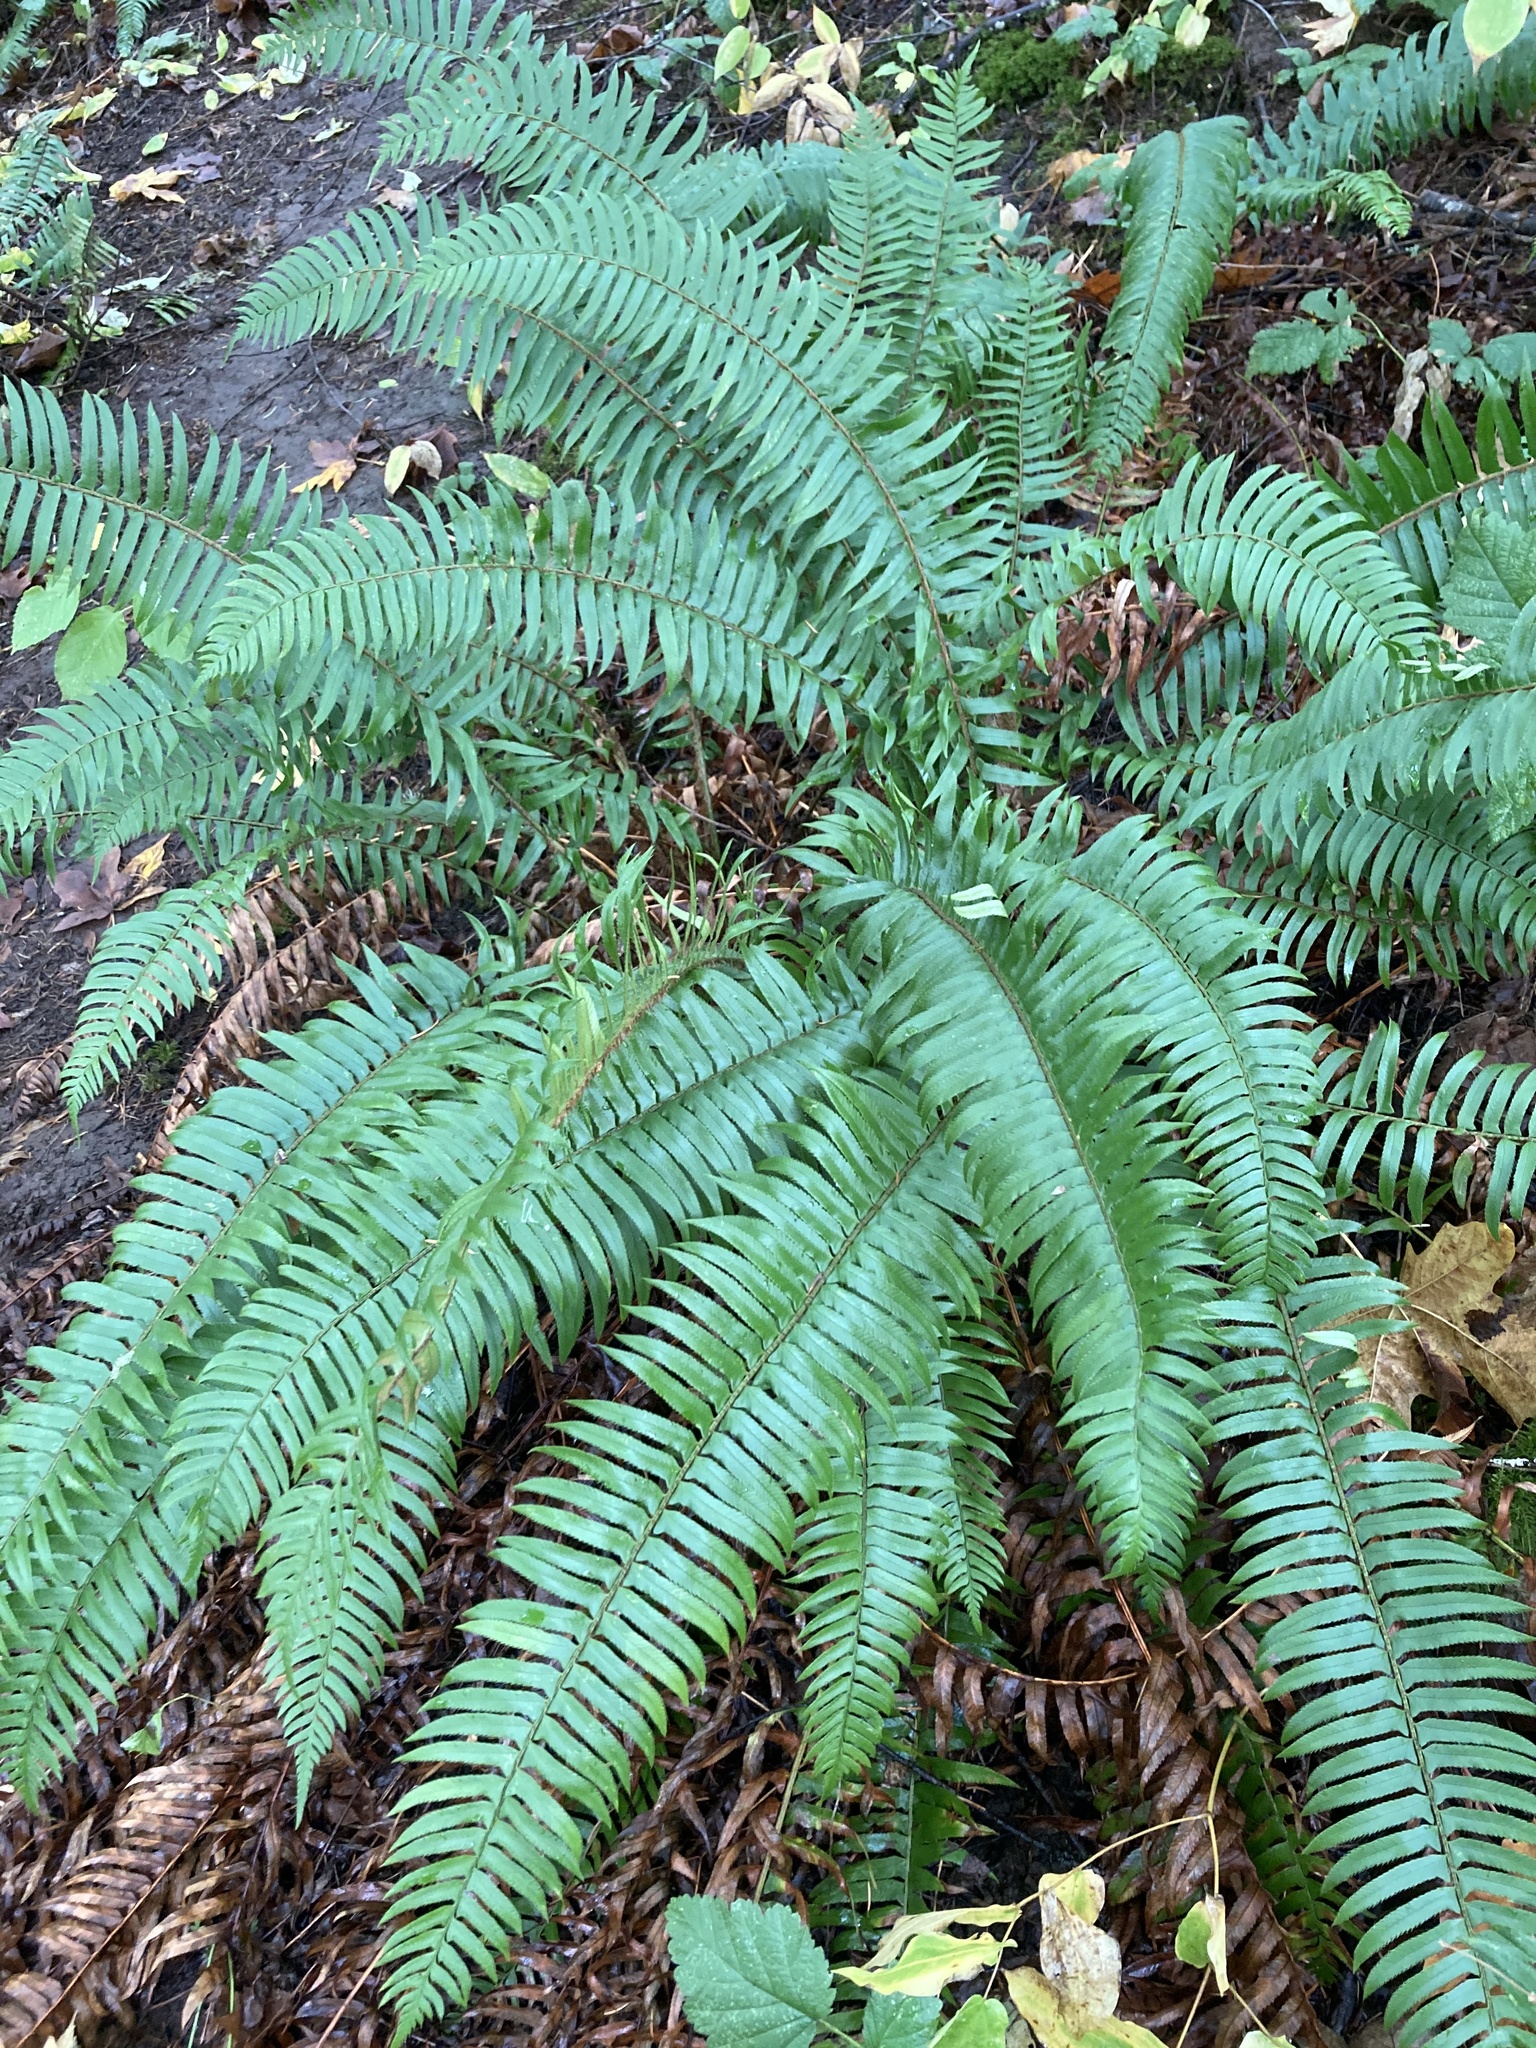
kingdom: Plantae
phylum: Tracheophyta
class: Polypodiopsida
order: Polypodiales
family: Dryopteridaceae
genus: Polystichum
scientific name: Polystichum munitum
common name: Western sword-fern
